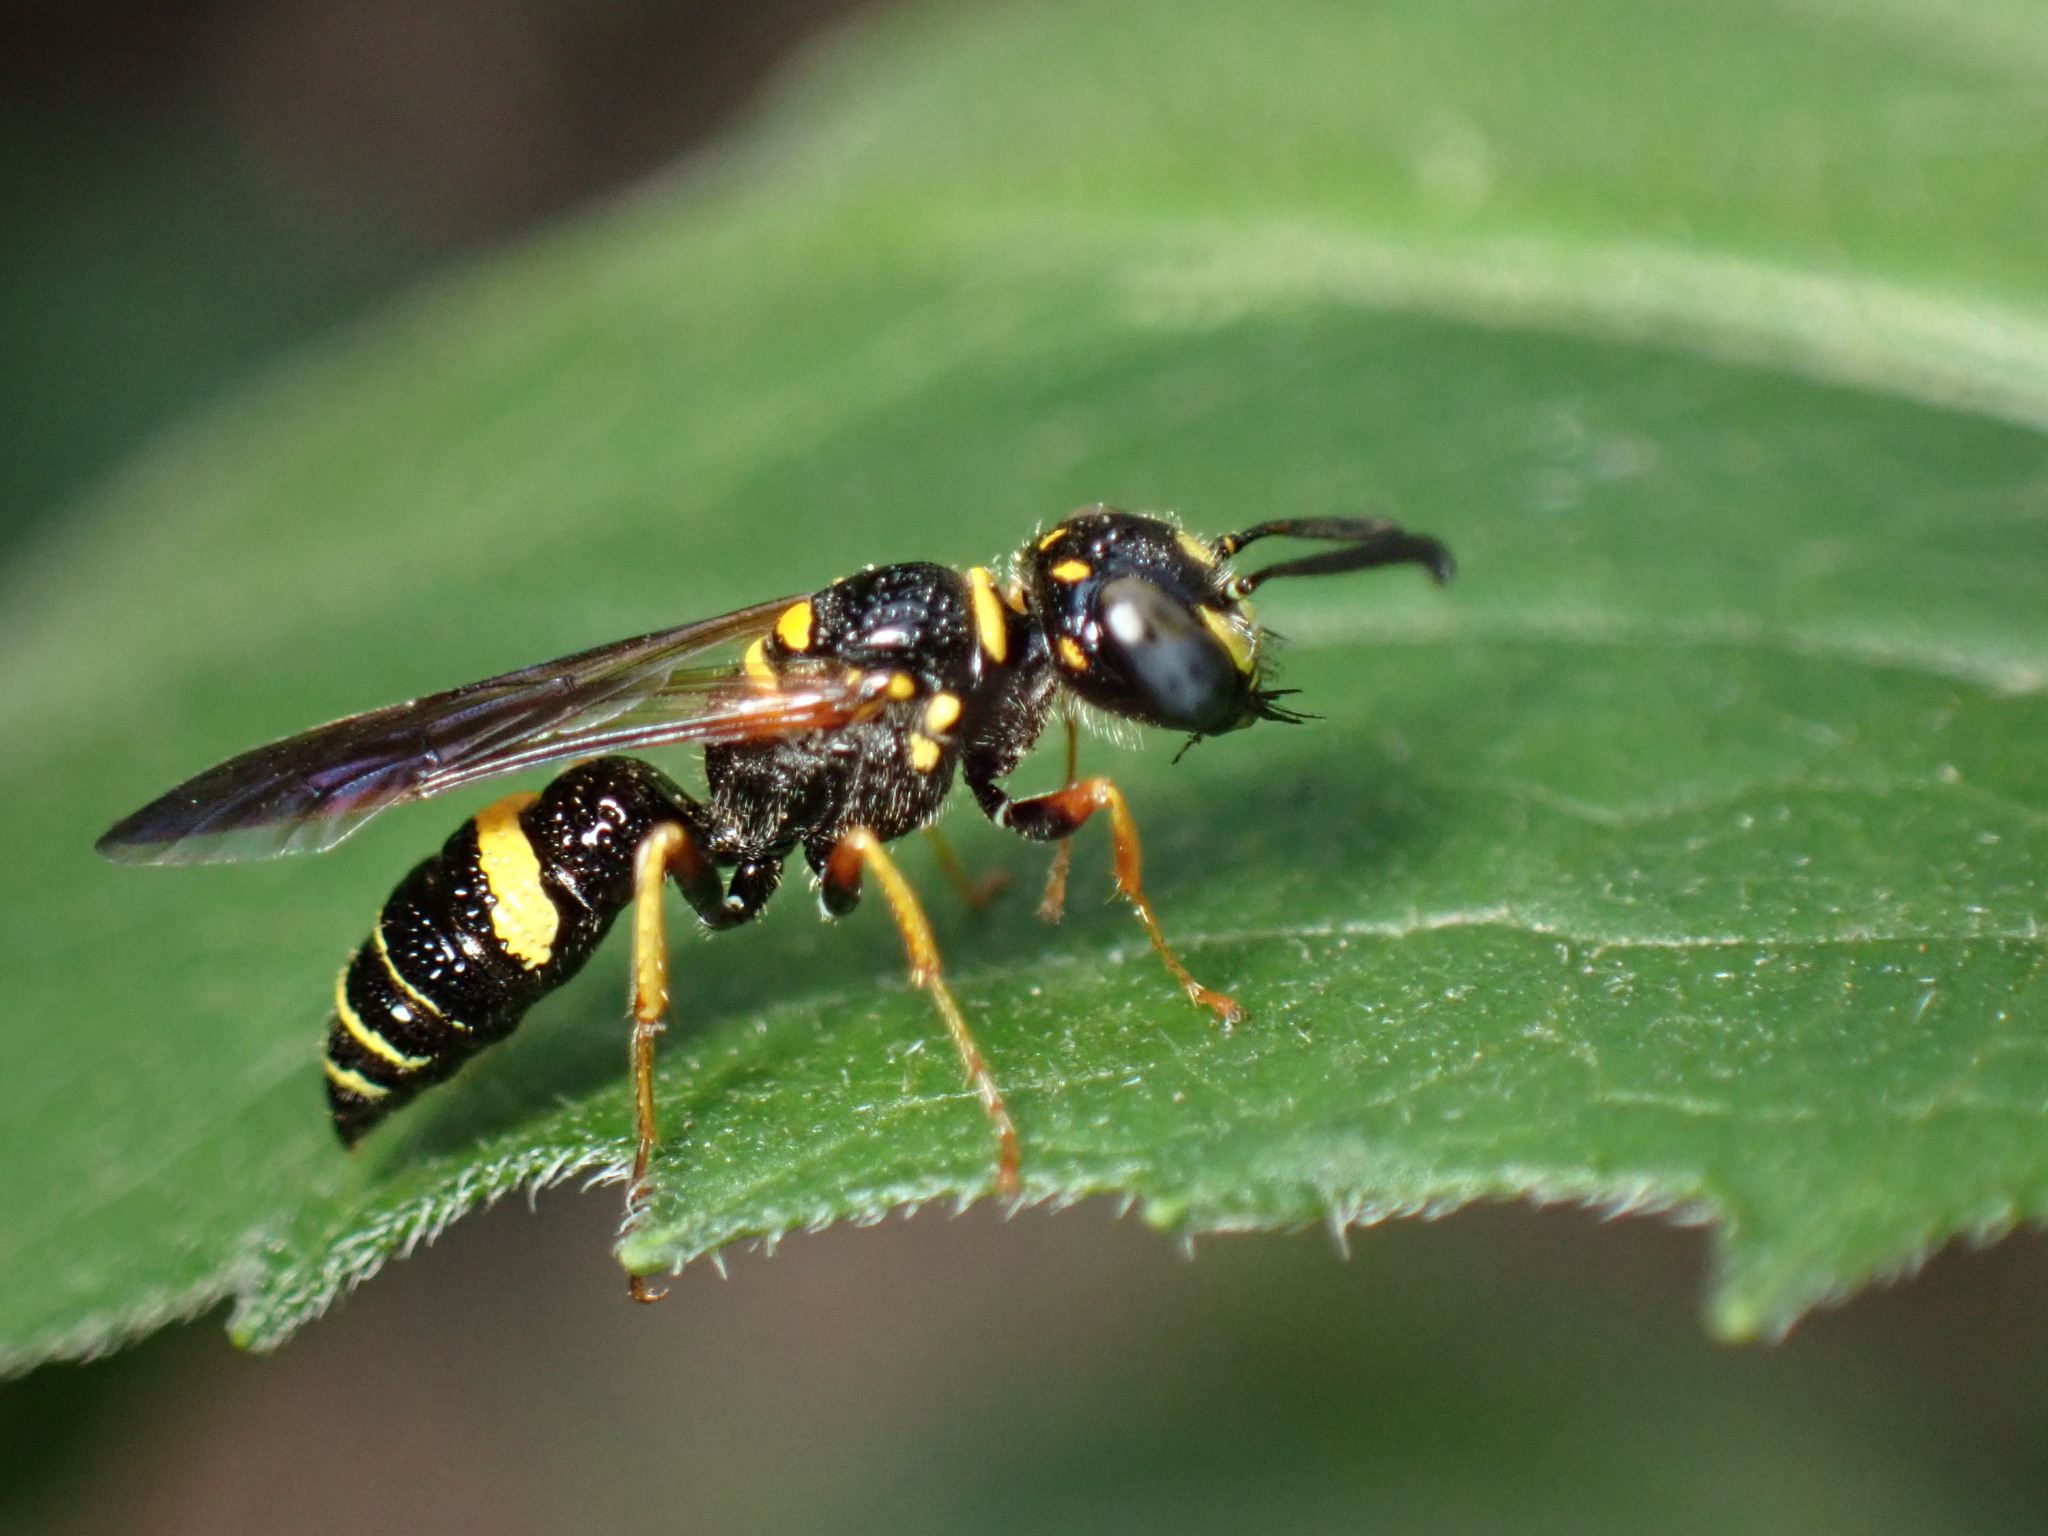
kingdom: Animalia
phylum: Arthropoda
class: Insecta
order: Hymenoptera
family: Crabronidae
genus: Philanthus
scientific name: Philanthus gibbosus
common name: Humped beewolf
